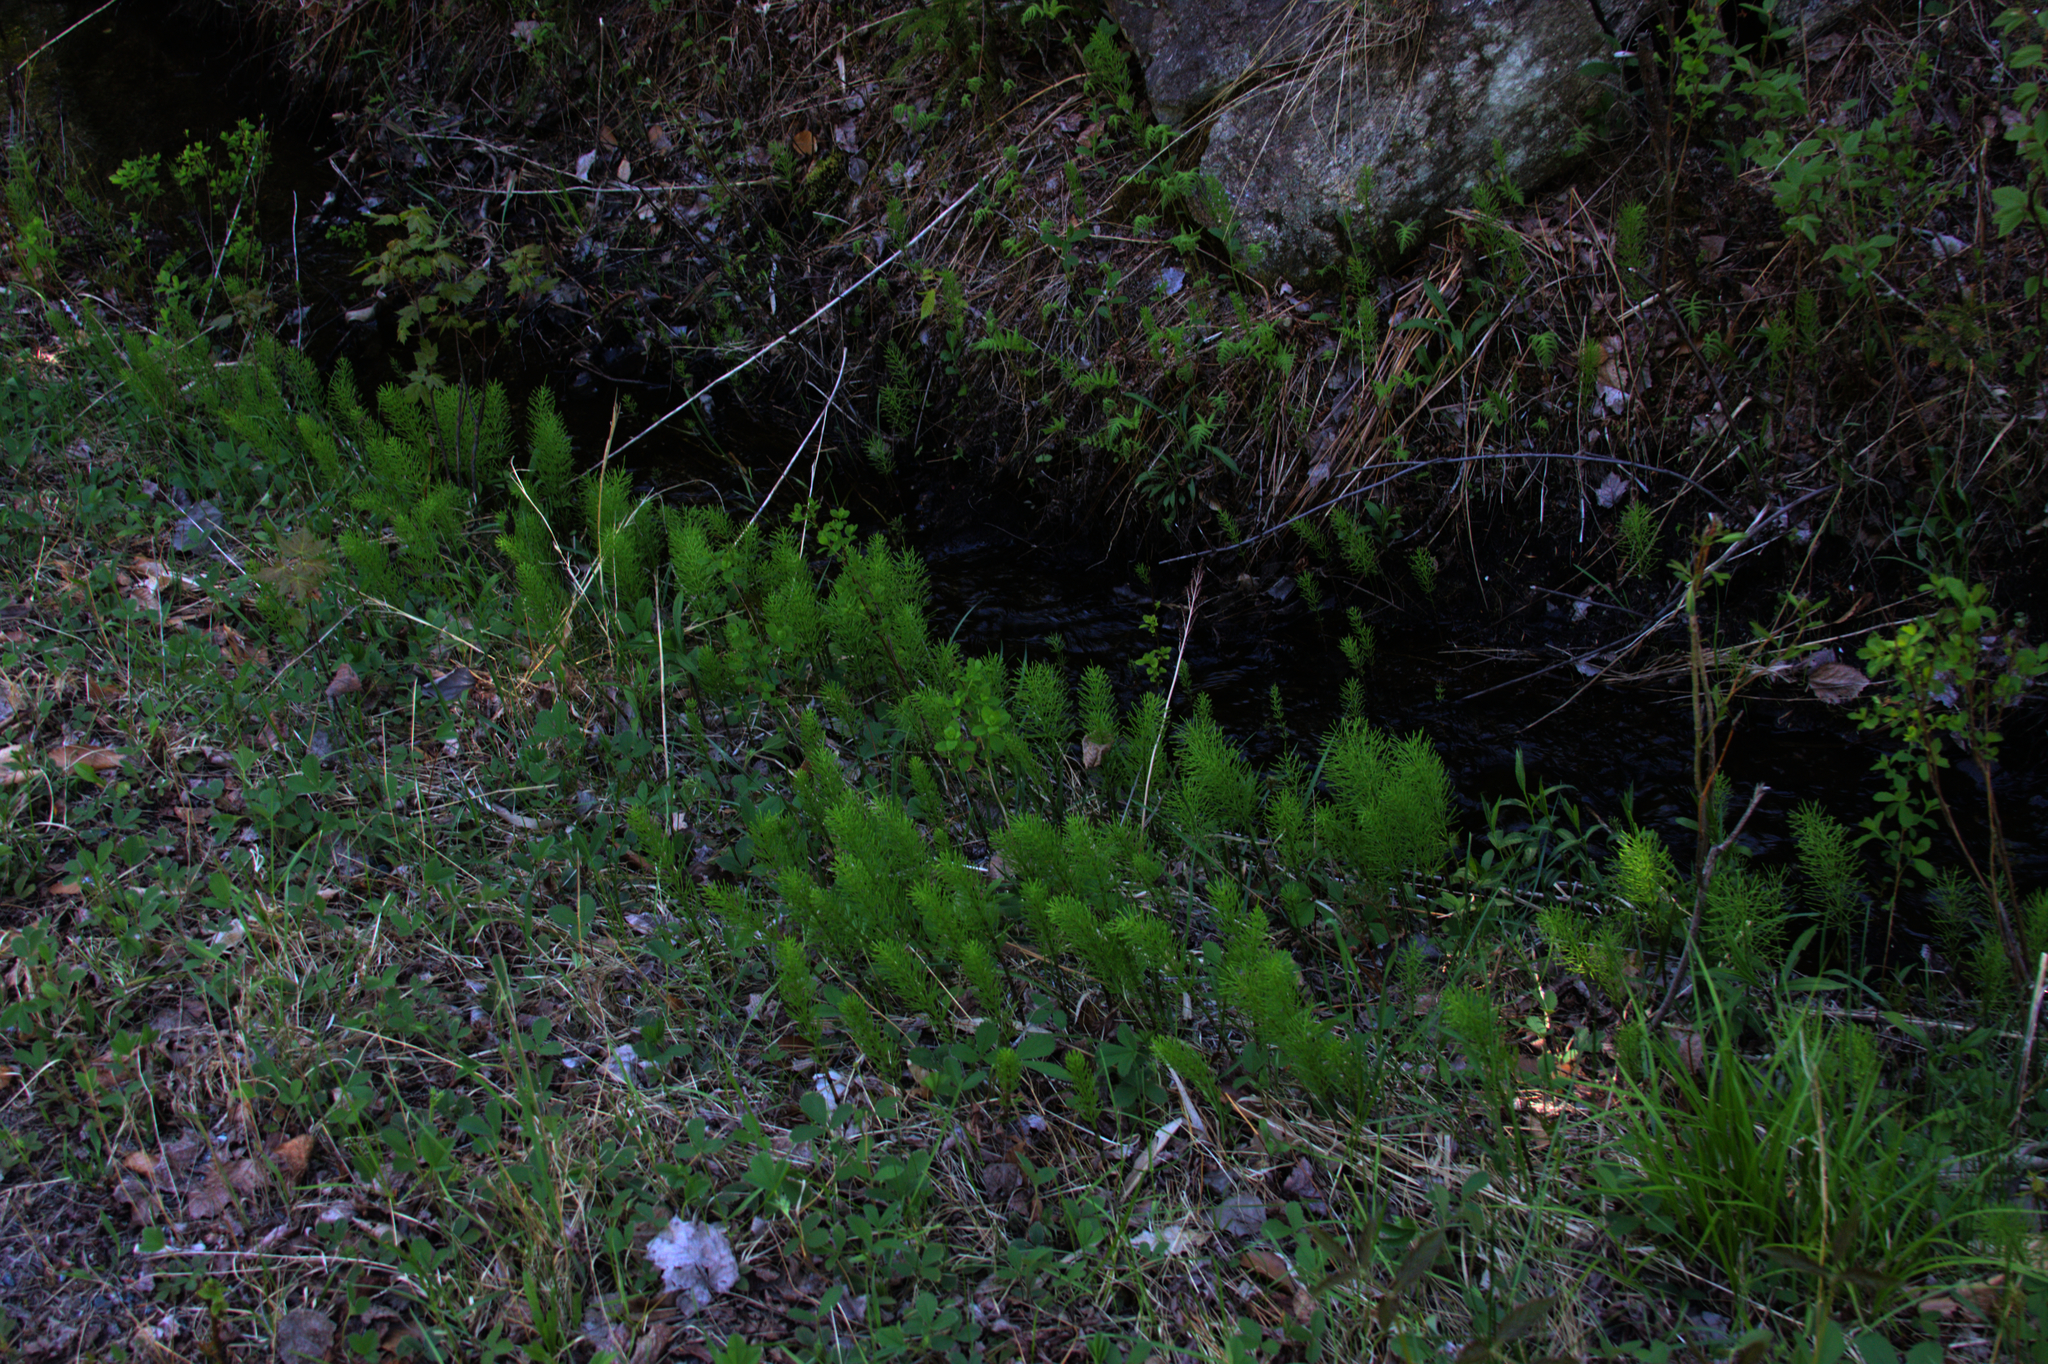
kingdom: Plantae
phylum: Tracheophyta
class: Polypodiopsida
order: Equisetales
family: Equisetaceae
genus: Equisetum
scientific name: Equisetum arvense
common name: Field horsetail
